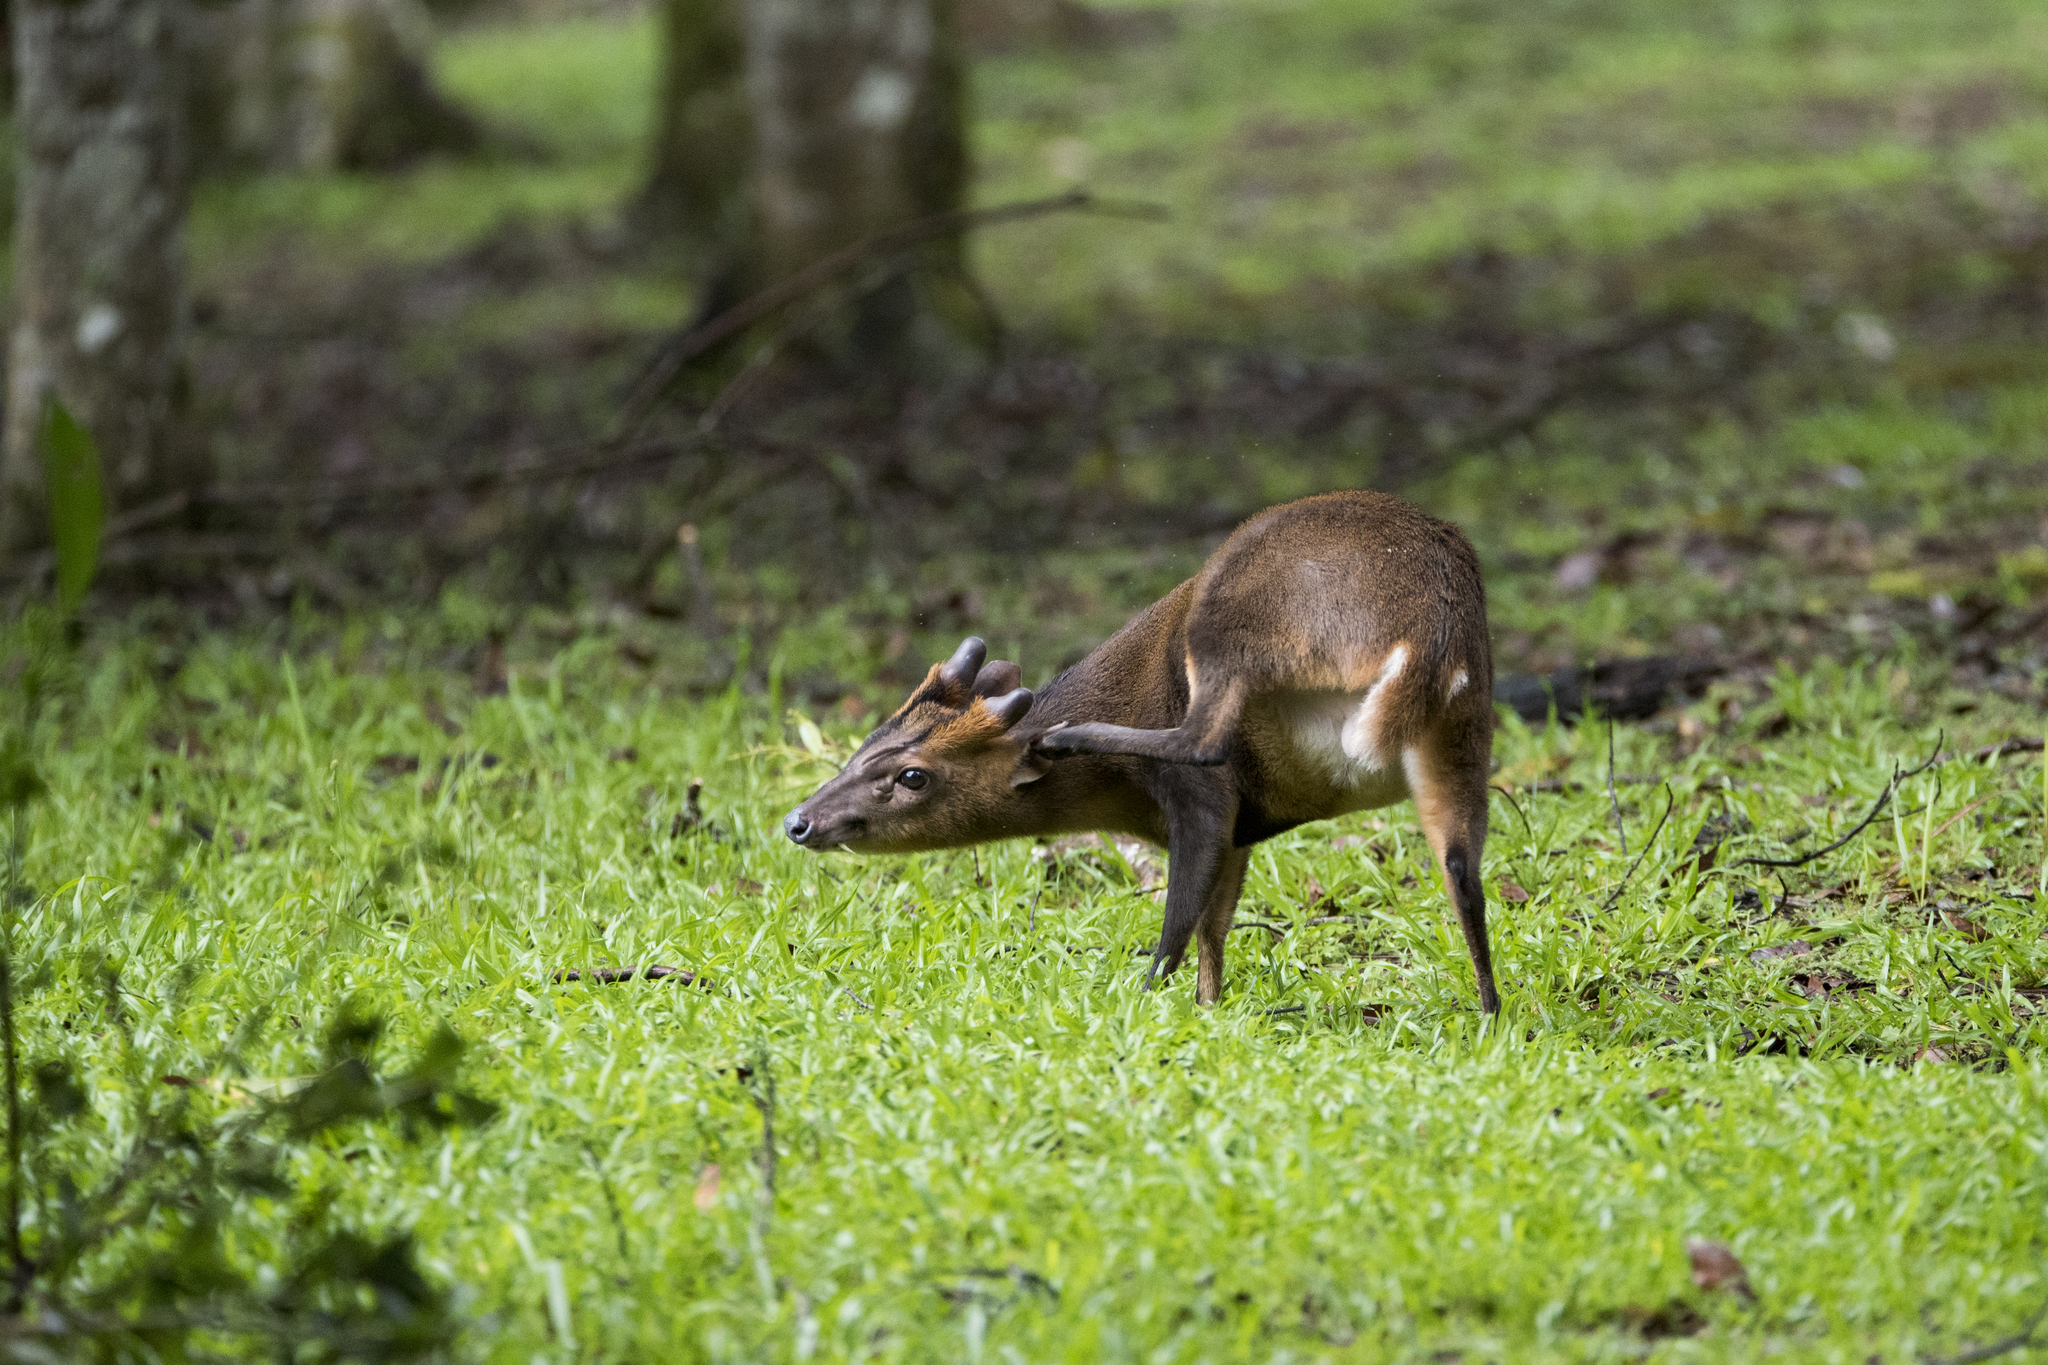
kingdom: Animalia
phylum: Chordata
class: Mammalia
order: Artiodactyla
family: Cervidae
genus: Muntiacus
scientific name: Muntiacus reevesi
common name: Reeves' muntjac
